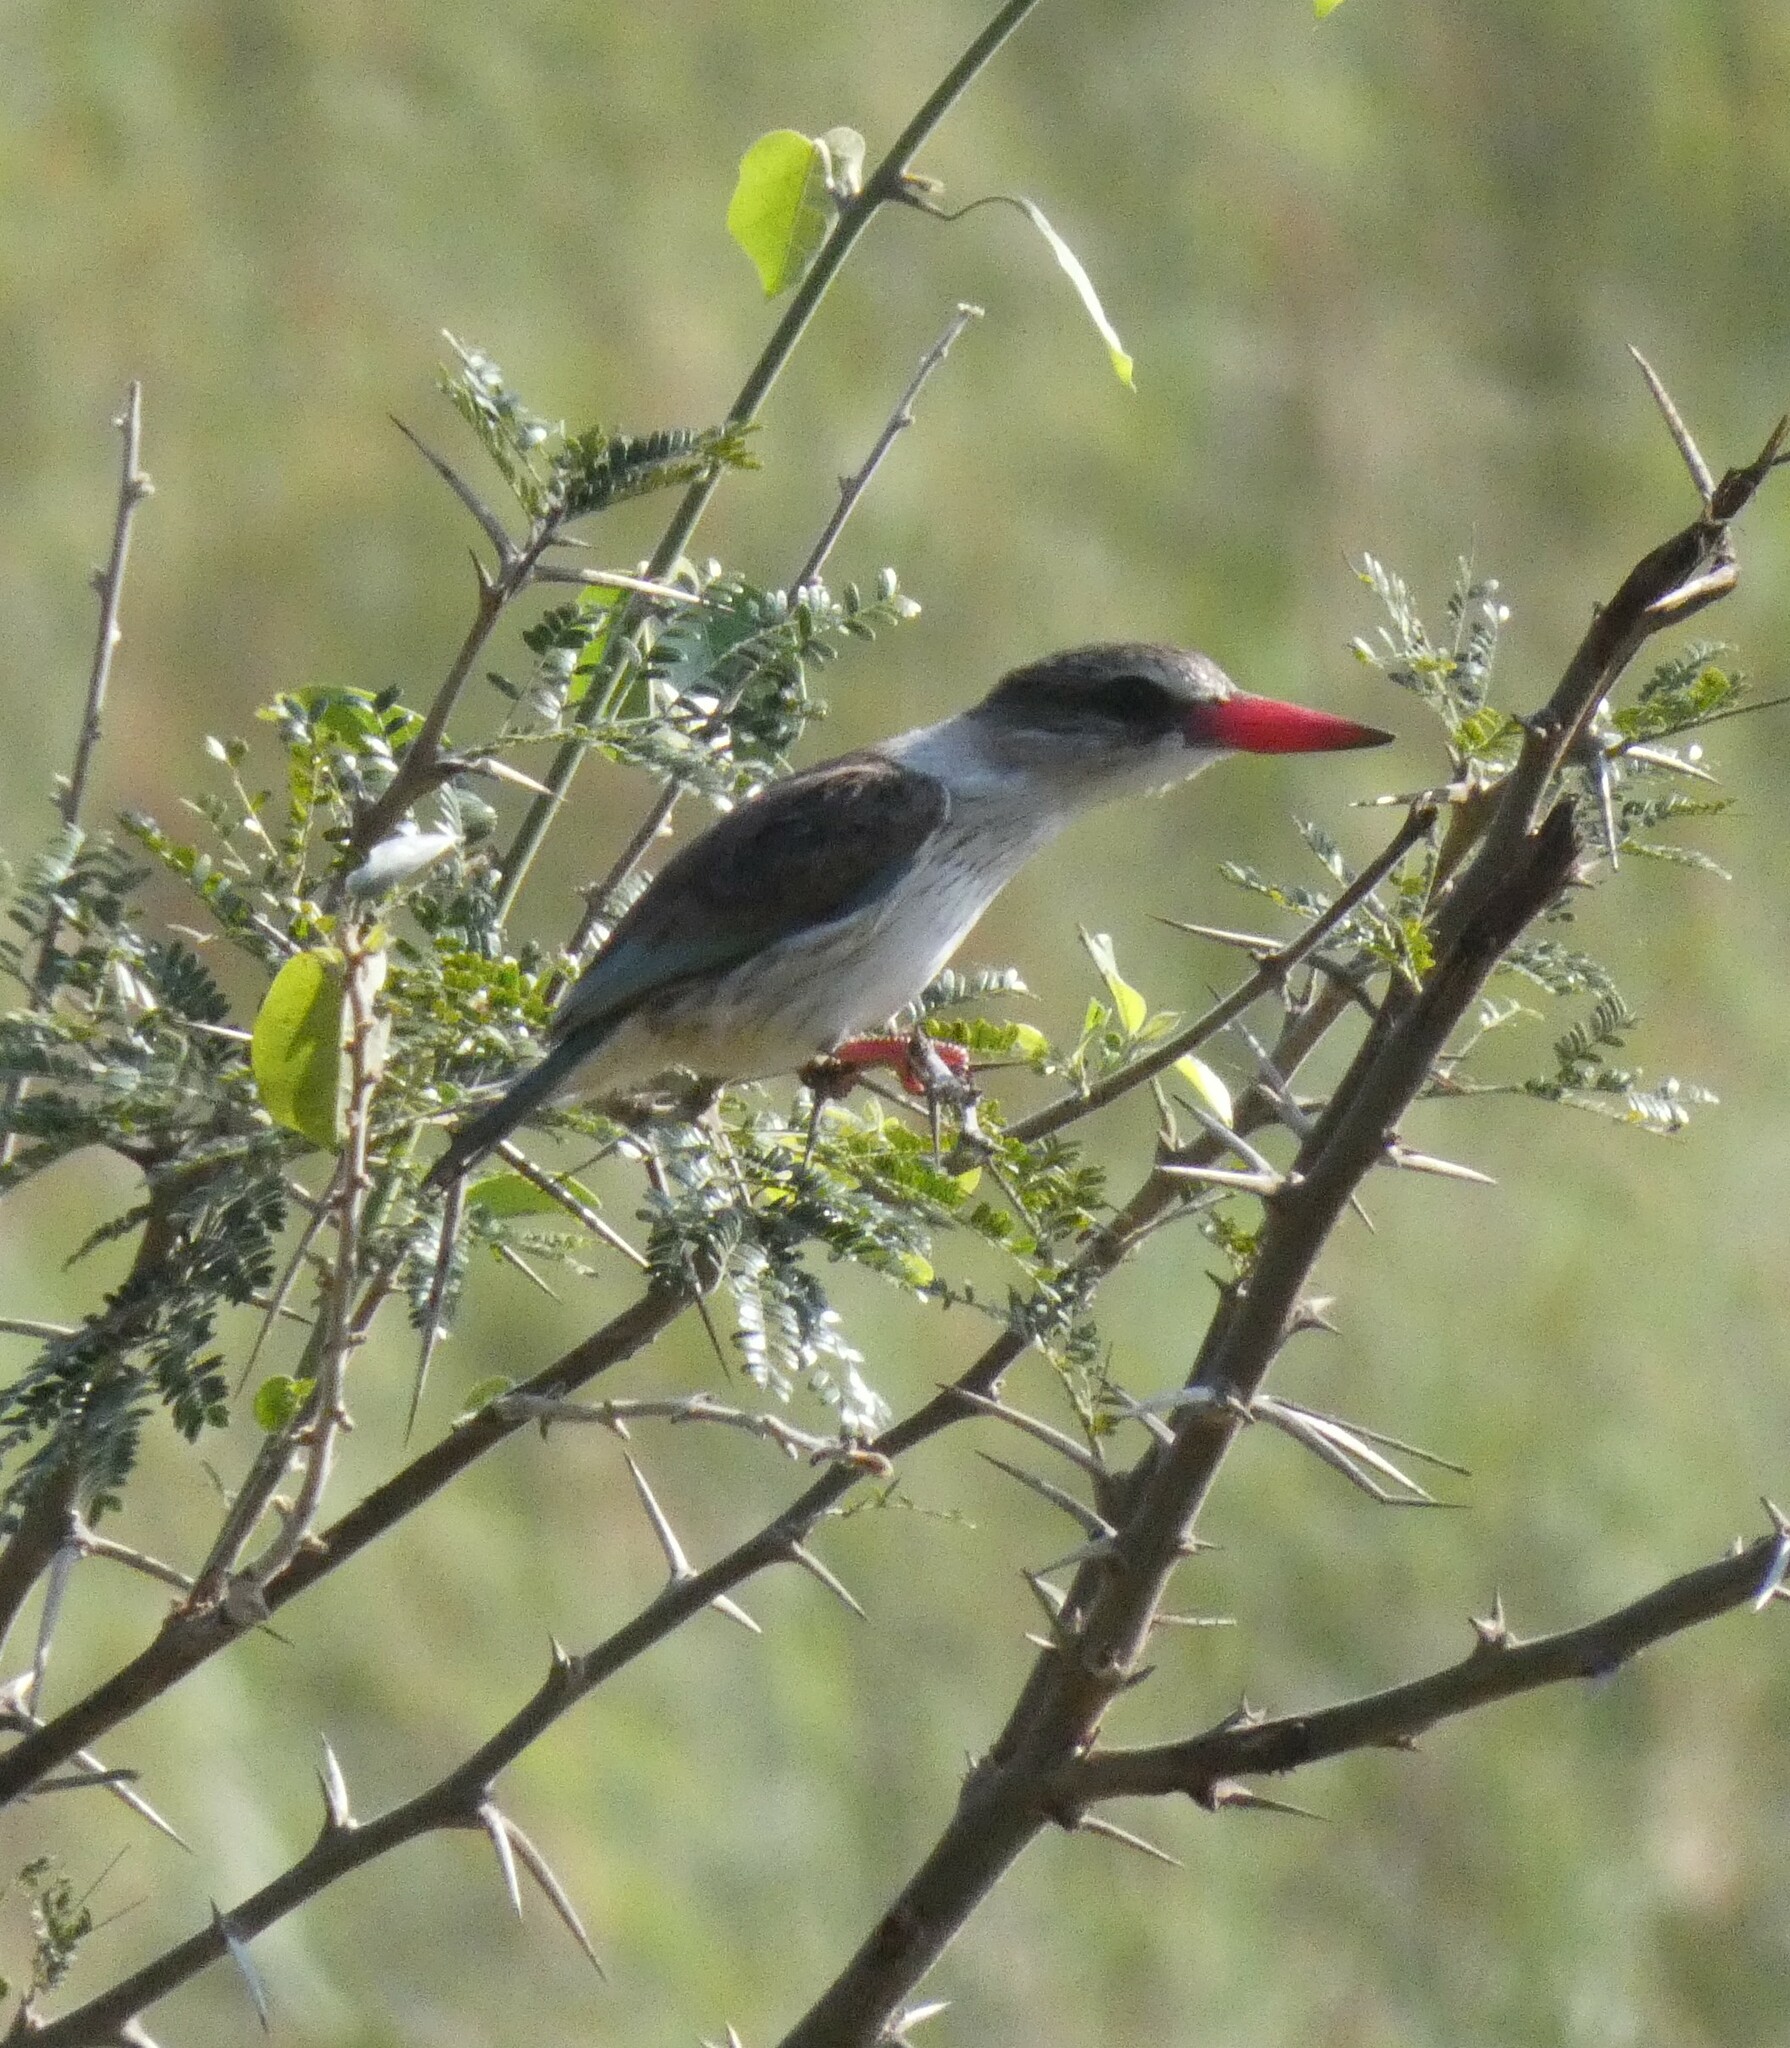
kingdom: Animalia
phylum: Chordata
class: Aves
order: Coraciiformes
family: Alcedinidae
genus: Halcyon
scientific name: Halcyon albiventris
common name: Brown-hooded kingfisher
